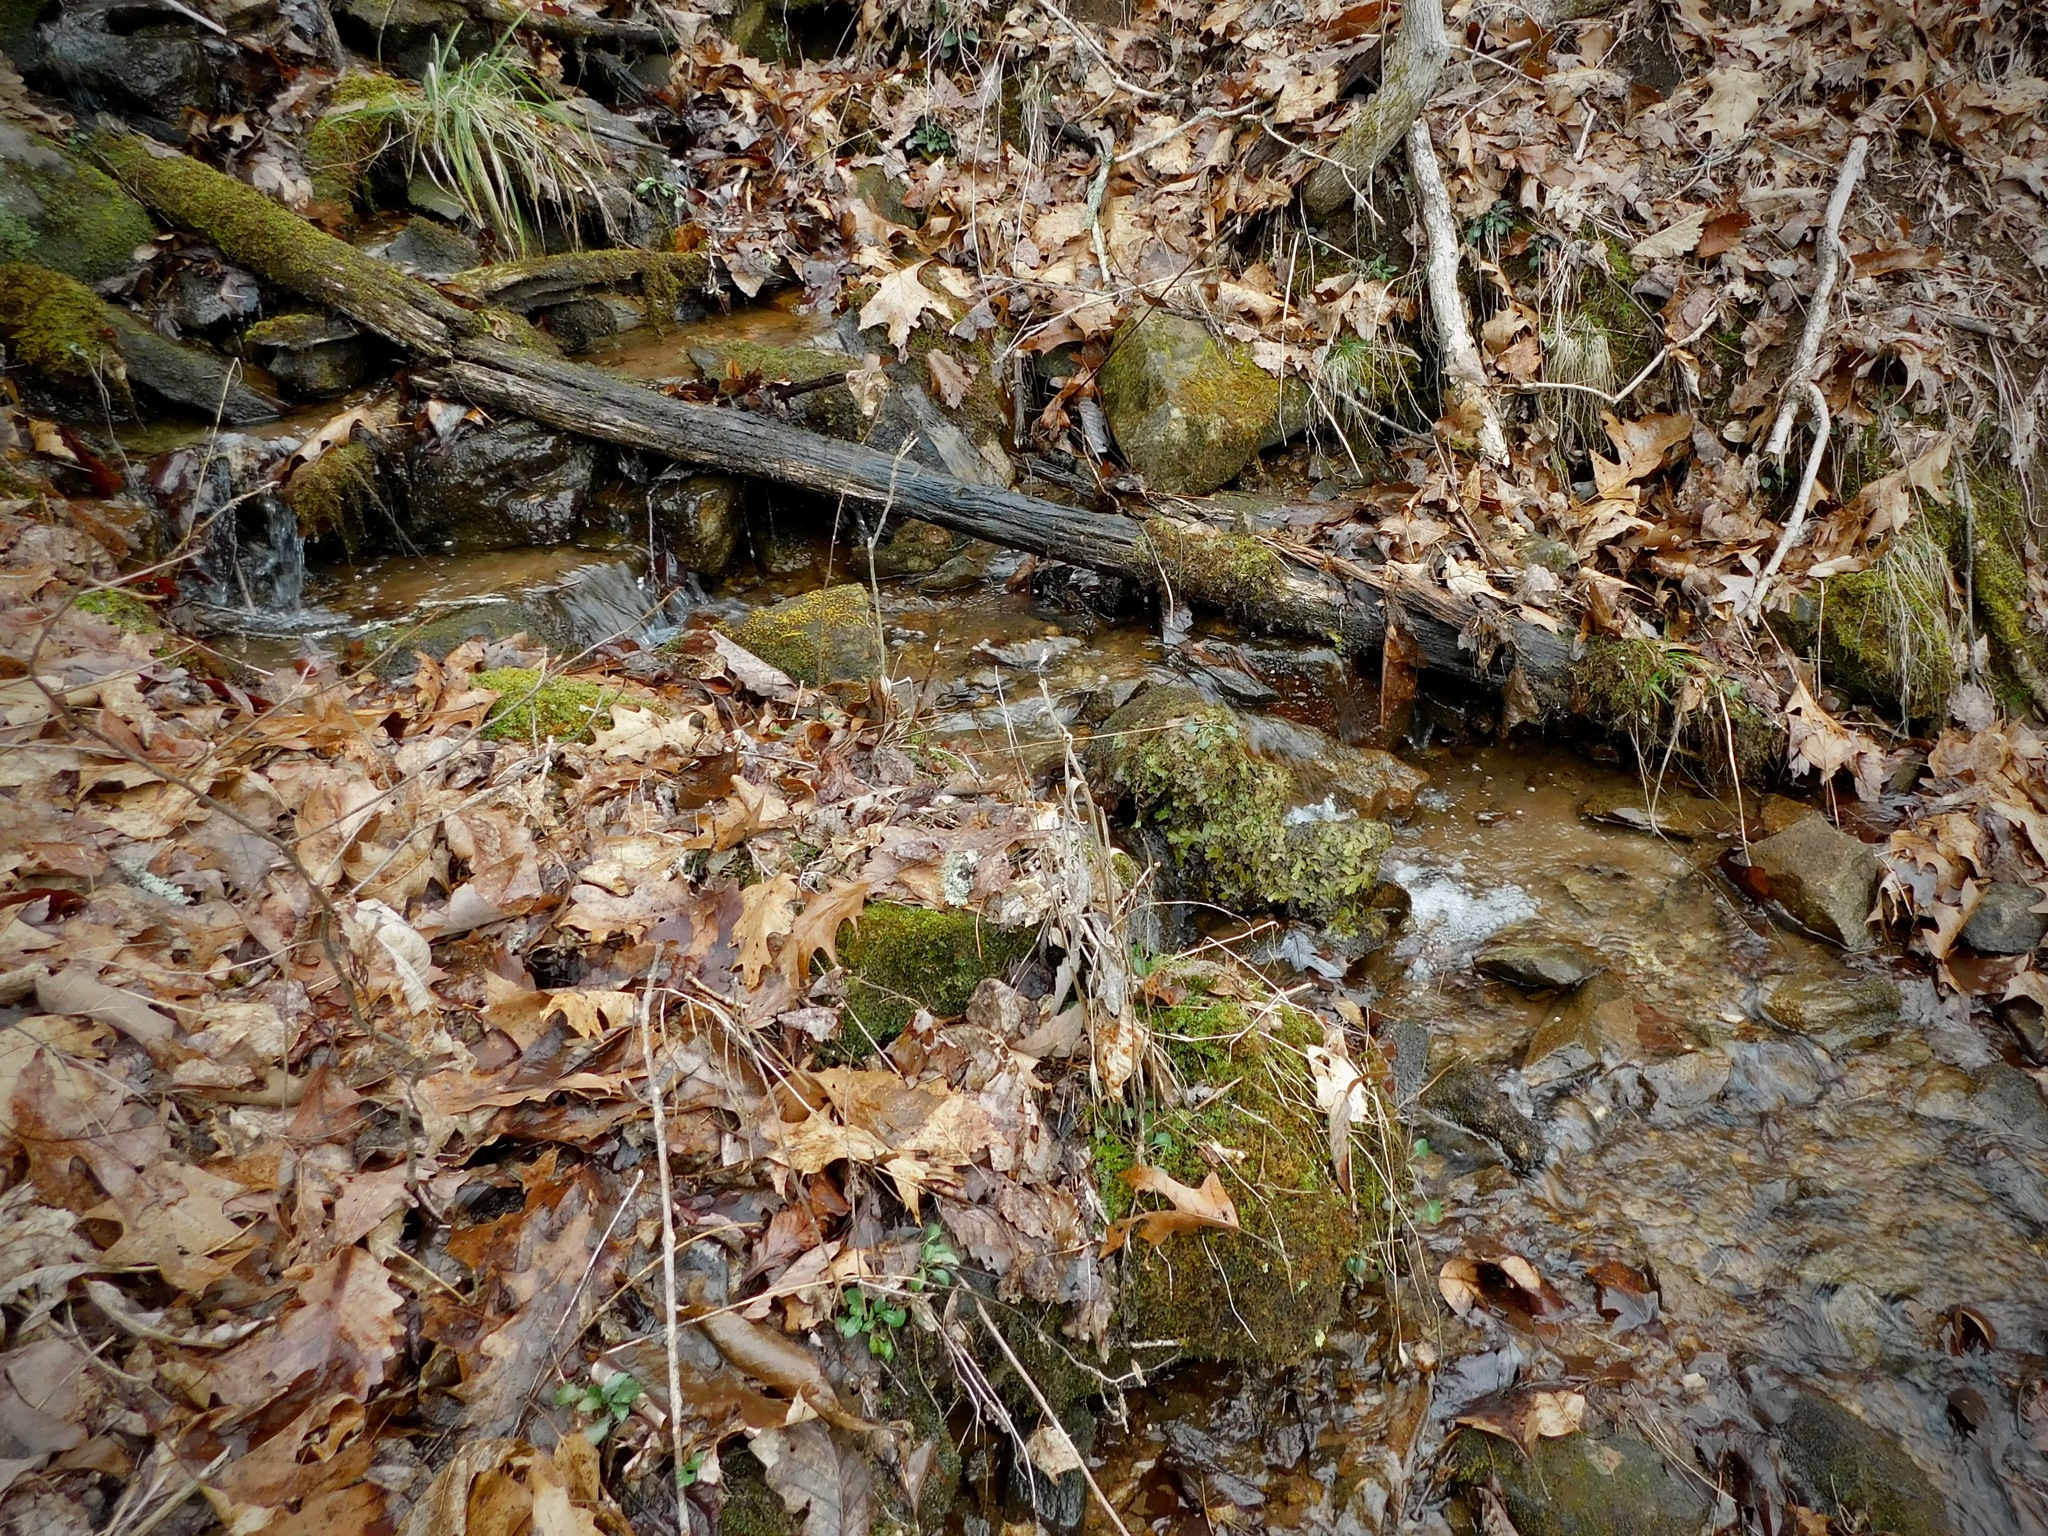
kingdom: Plantae
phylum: Marchantiophyta
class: Marchantiopsida
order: Marchantiales
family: Conocephalaceae
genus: Conocephalum
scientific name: Conocephalum salebrosum
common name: Cat-tongue liverwort
